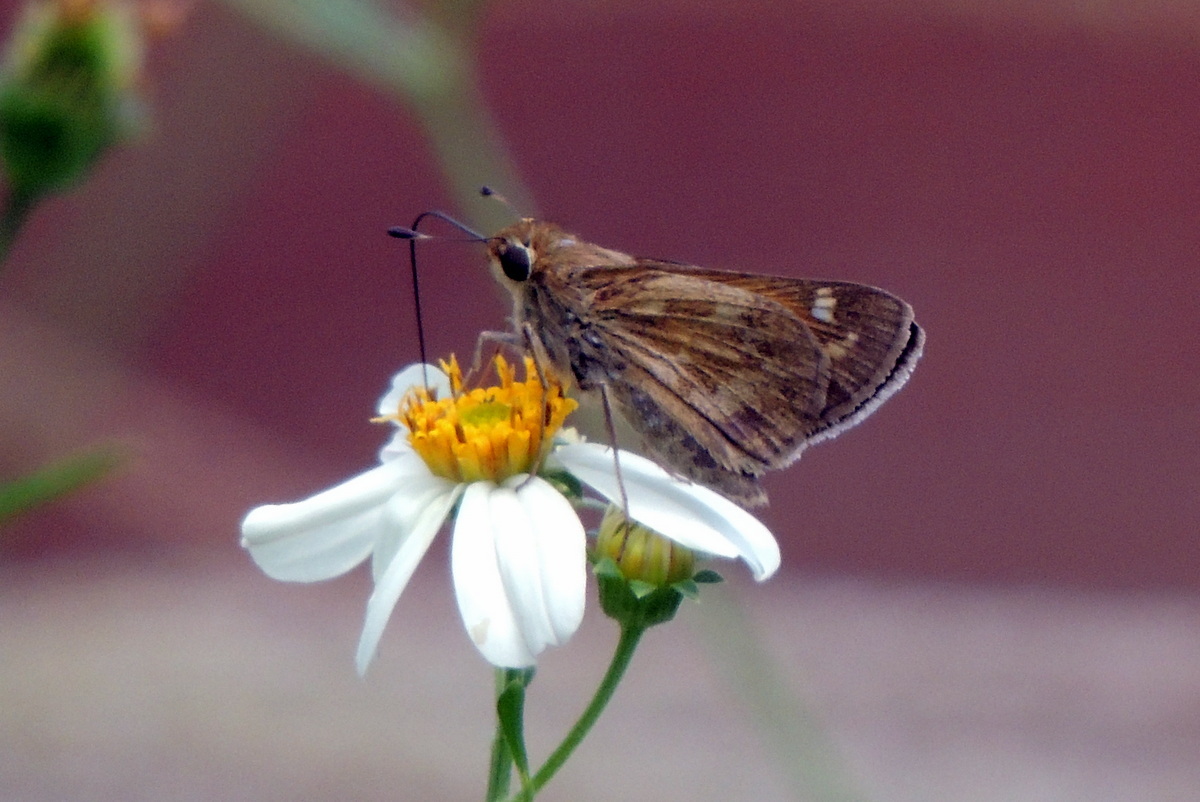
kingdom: Animalia
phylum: Arthropoda
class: Insecta
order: Lepidoptera
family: Hesperiidae
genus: Atalopedes
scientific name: Atalopedes
